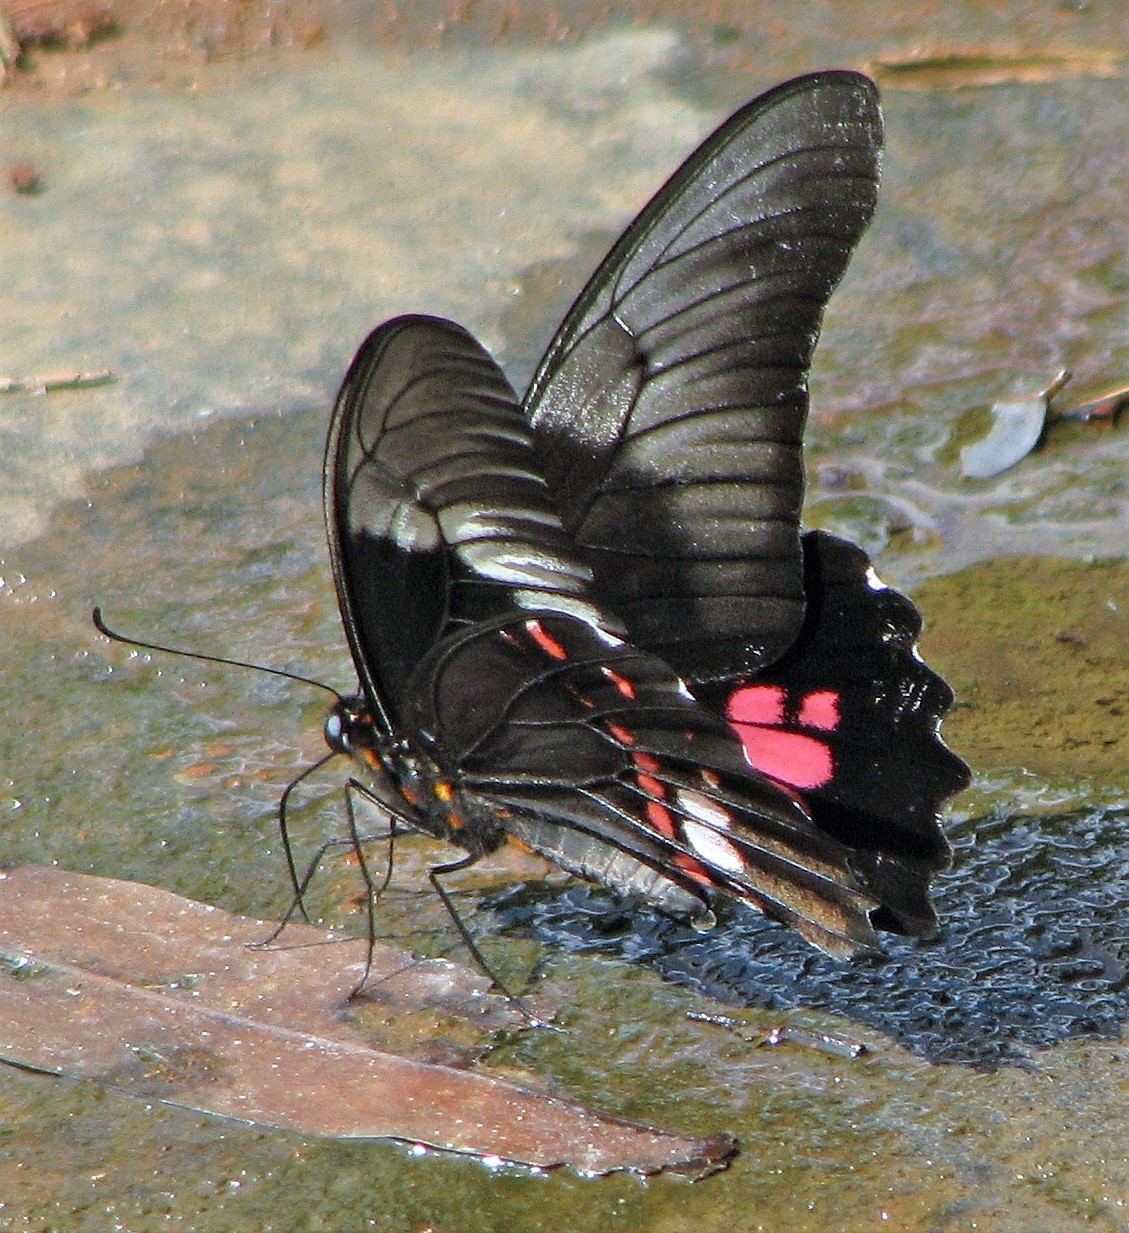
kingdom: Animalia
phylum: Arthropoda
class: Insecta
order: Lepidoptera
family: Papilionidae
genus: Papilio
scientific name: Papilio anchisiades
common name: Idaes swallowtail
